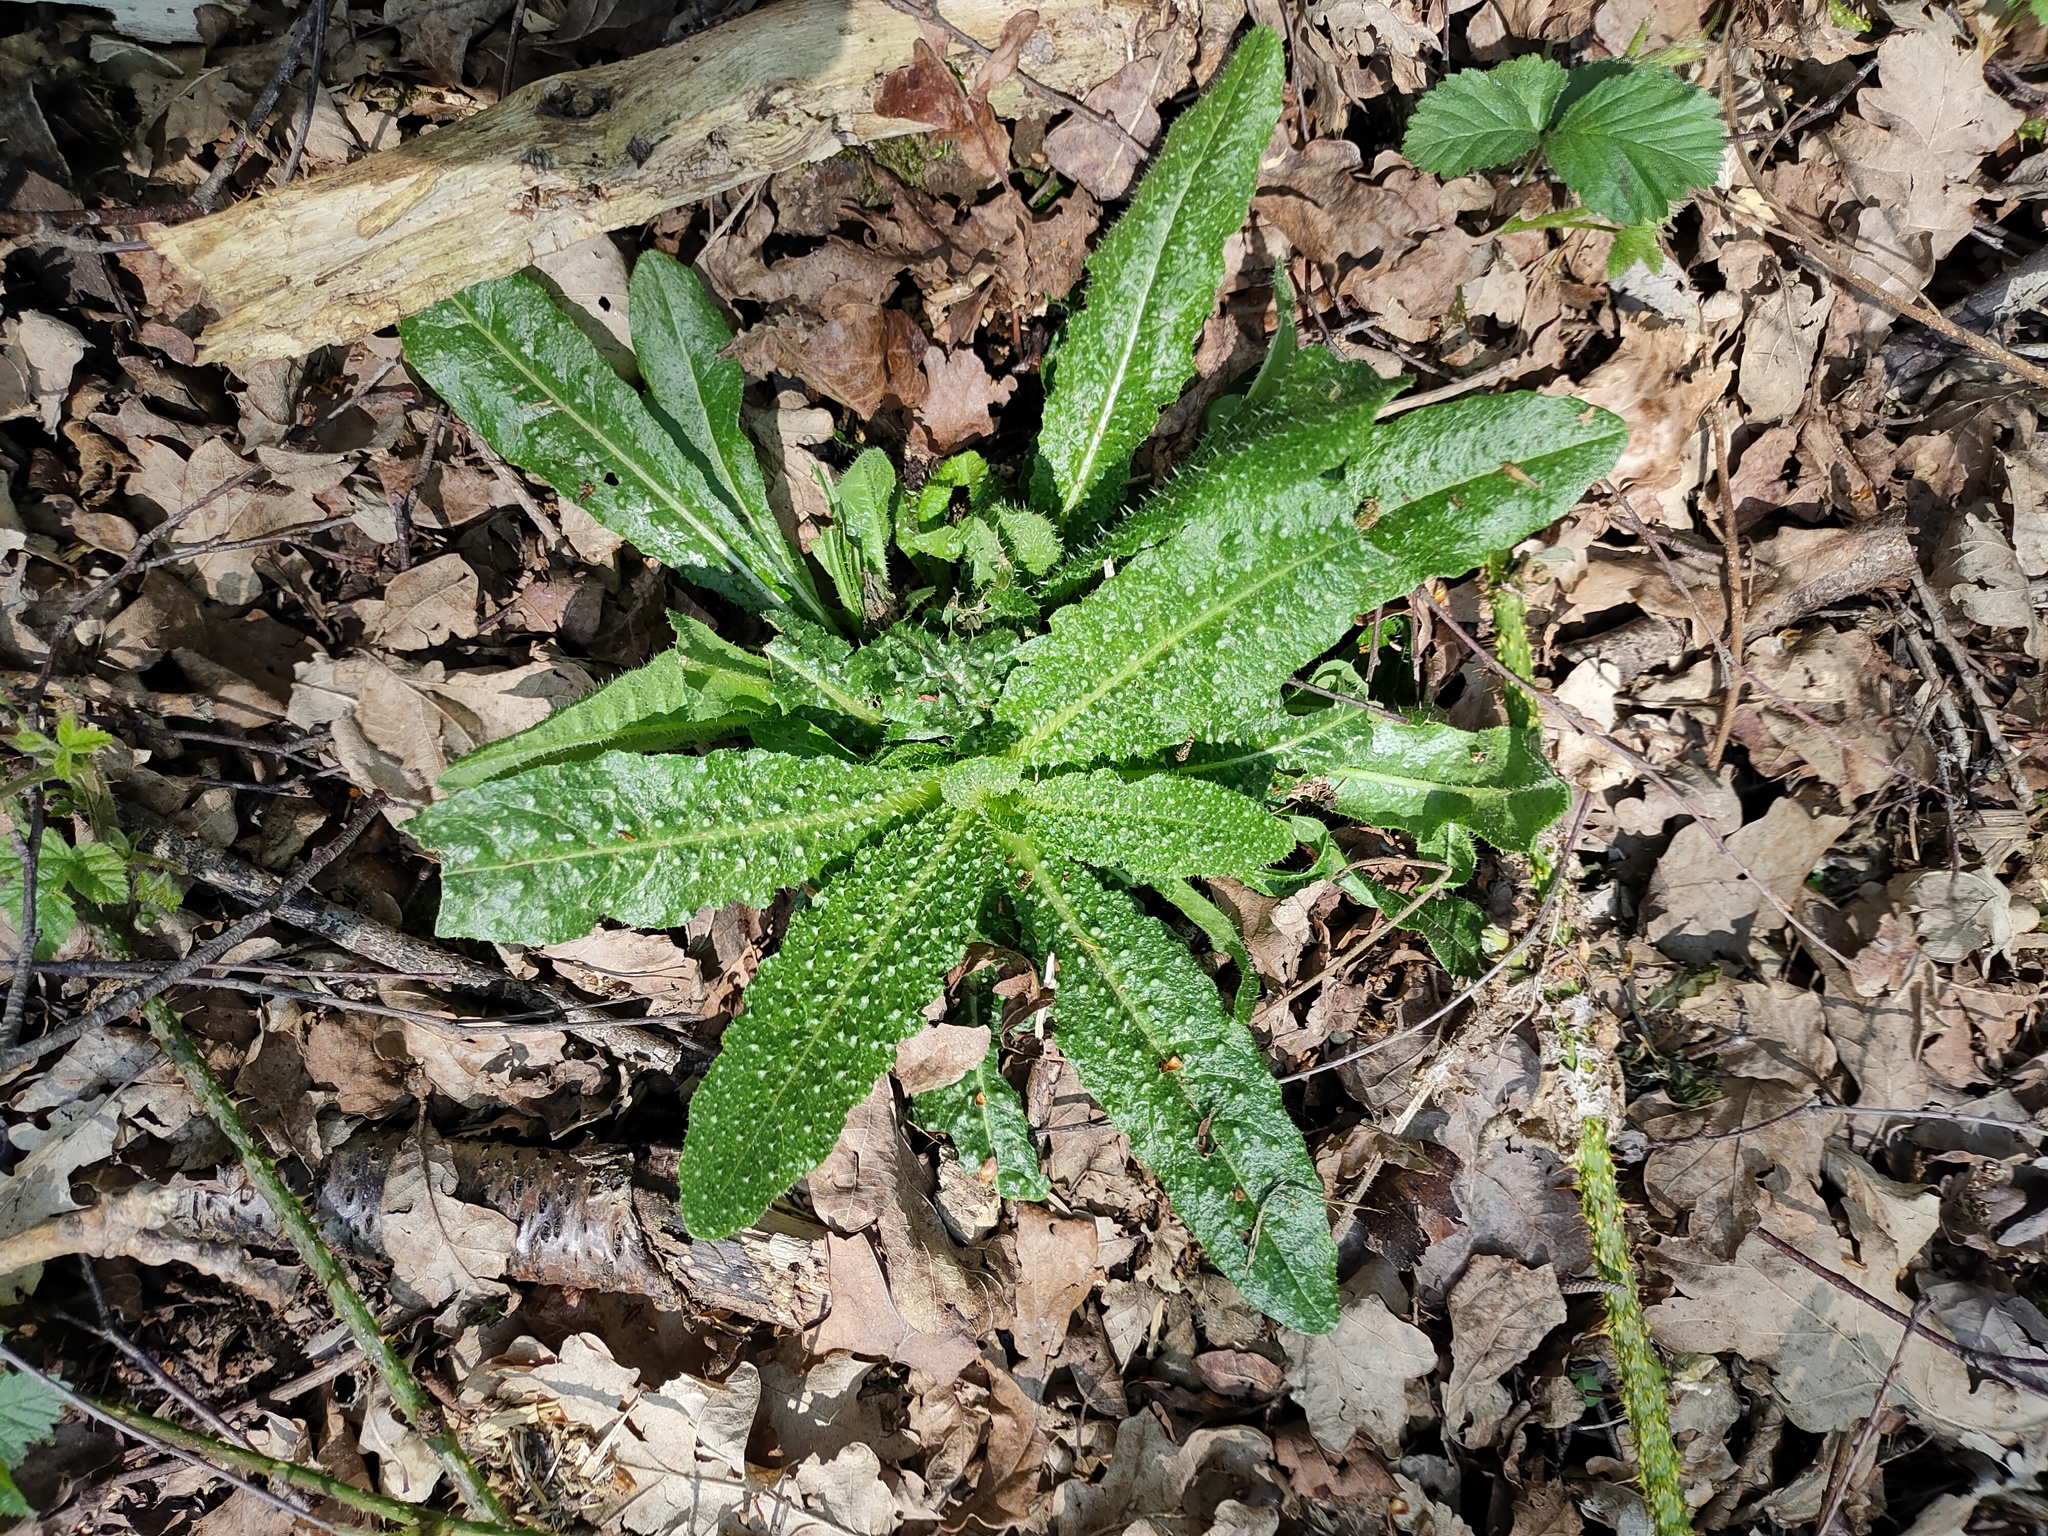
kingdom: Plantae
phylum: Tracheophyta
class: Magnoliopsida
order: Asterales
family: Asteraceae
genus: Helminthotheca
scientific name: Helminthotheca echioides
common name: Ox-tongue
